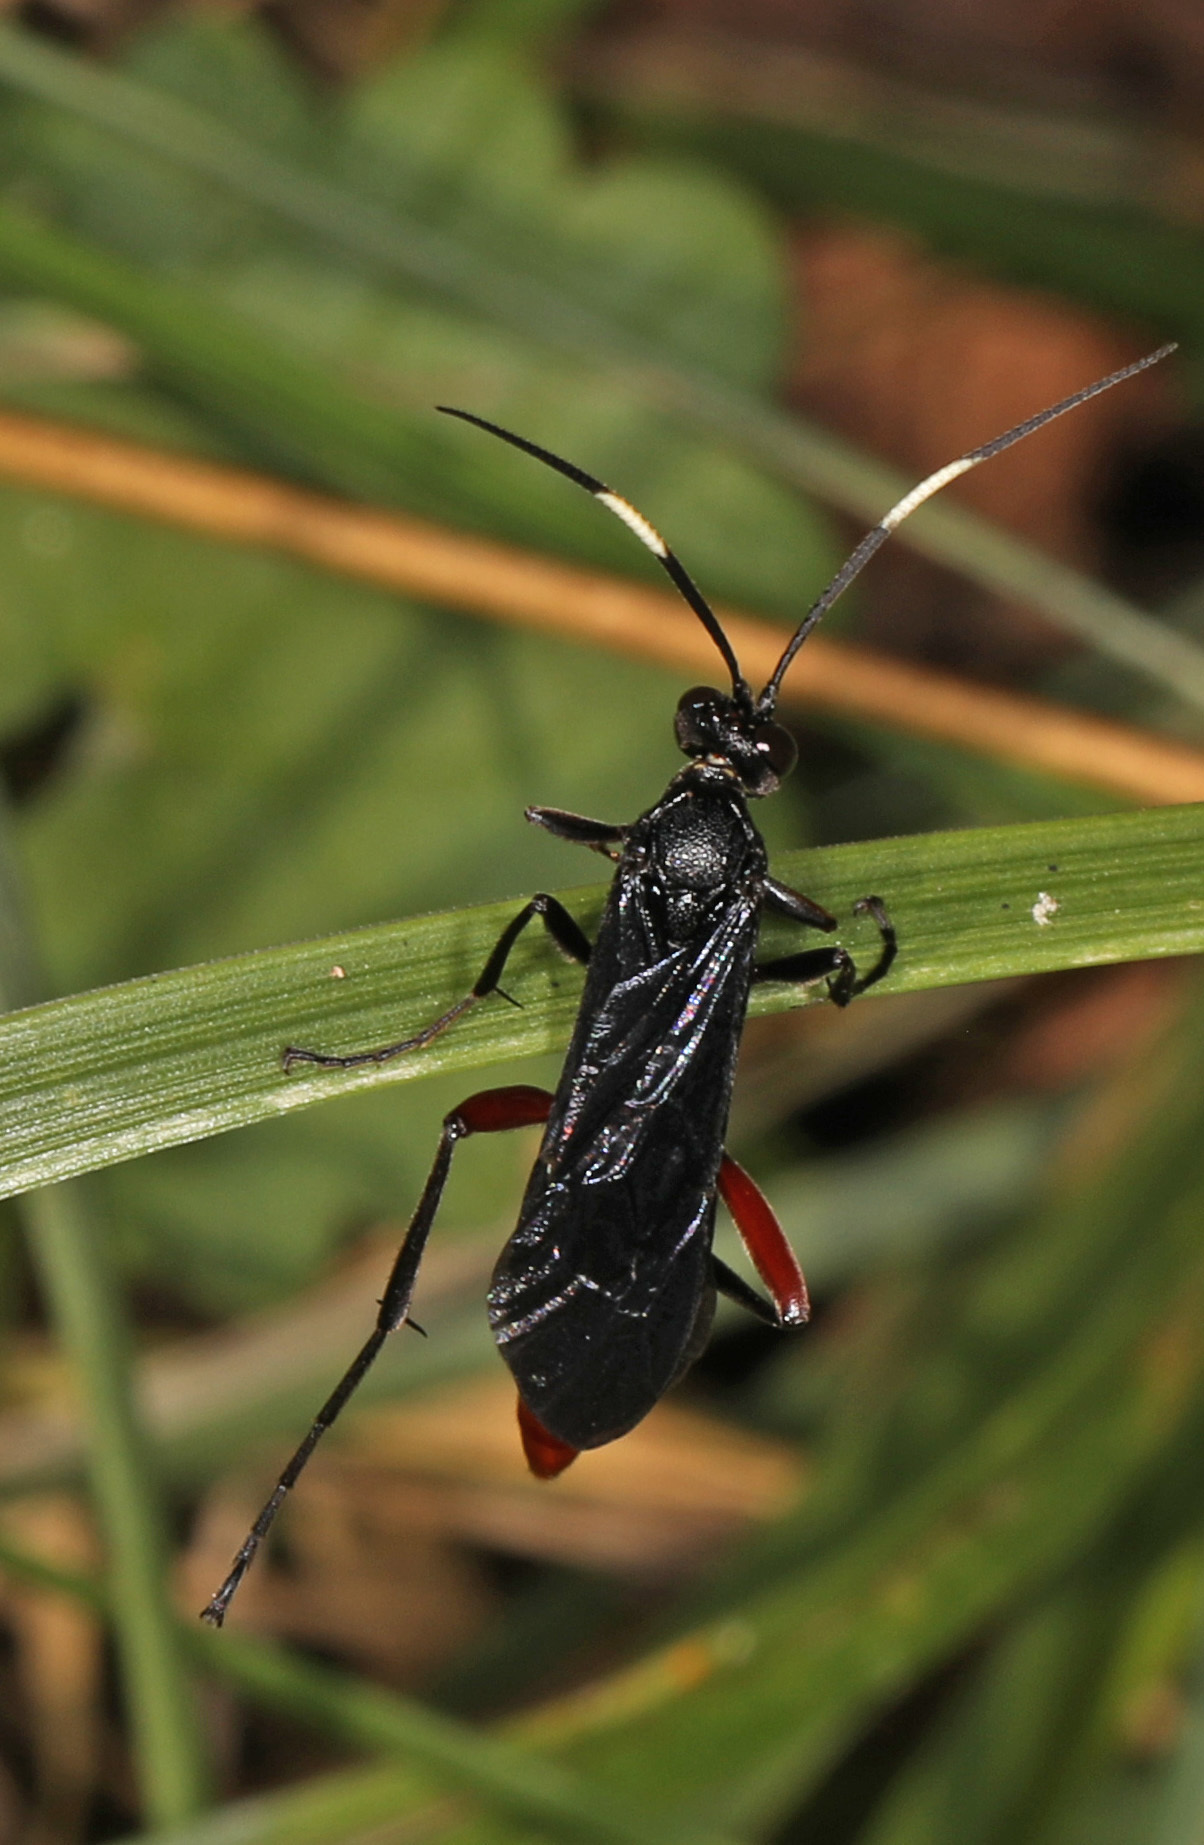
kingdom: Animalia
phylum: Arthropoda
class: Insecta
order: Hymenoptera
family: Ichneumonidae
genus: Limonethe
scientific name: Limonethe maurator
